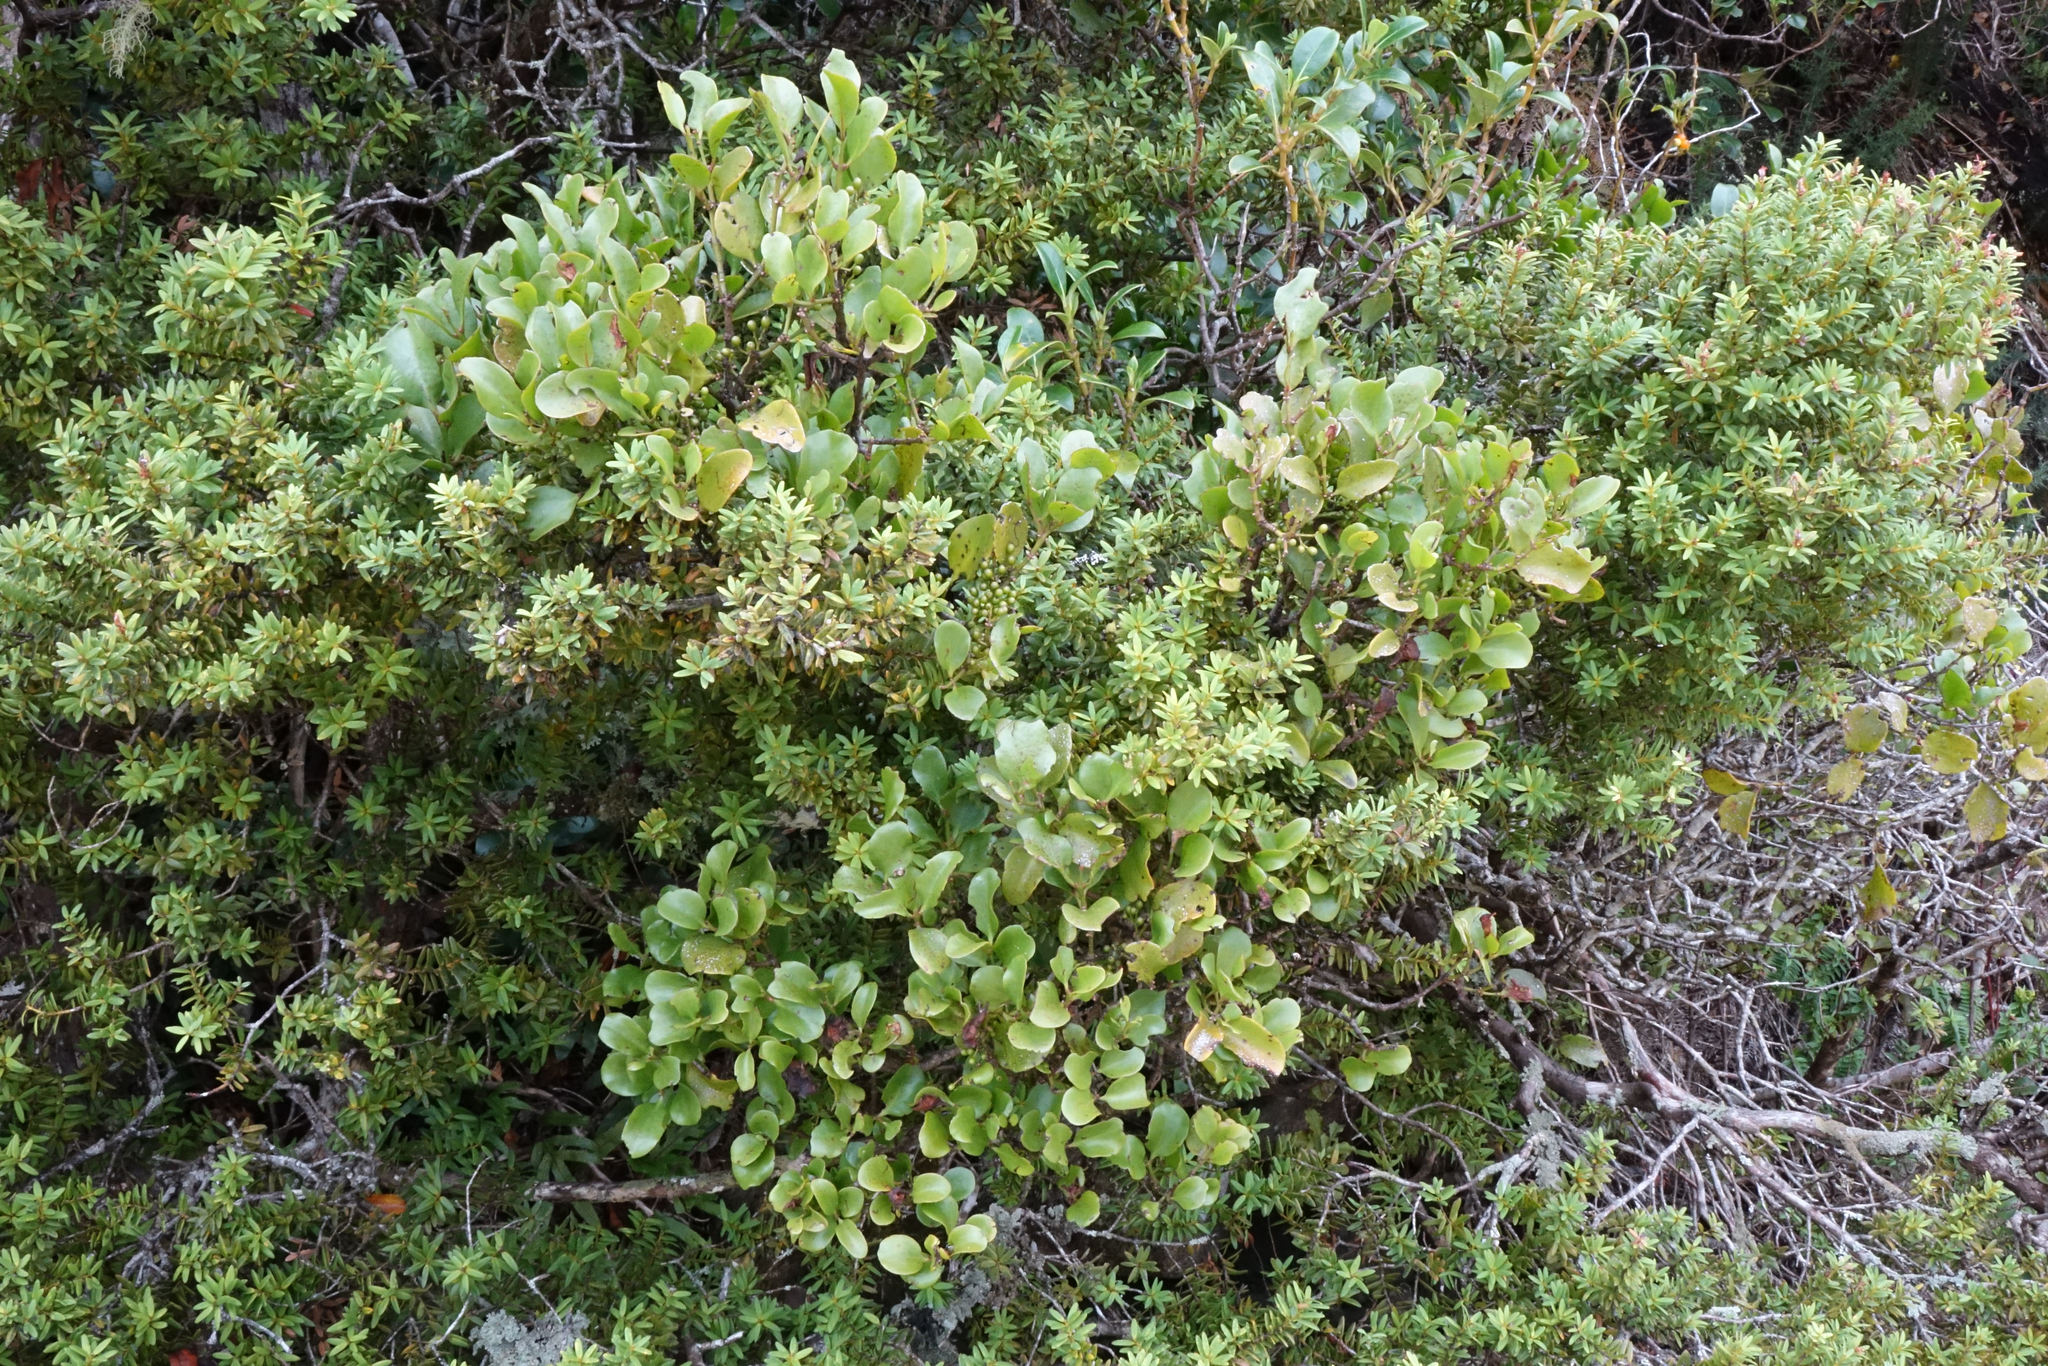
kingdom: Plantae
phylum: Tracheophyta
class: Magnoliopsida
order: Santalales
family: Loranthaceae
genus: Ileostylus
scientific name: Ileostylus micranthus
